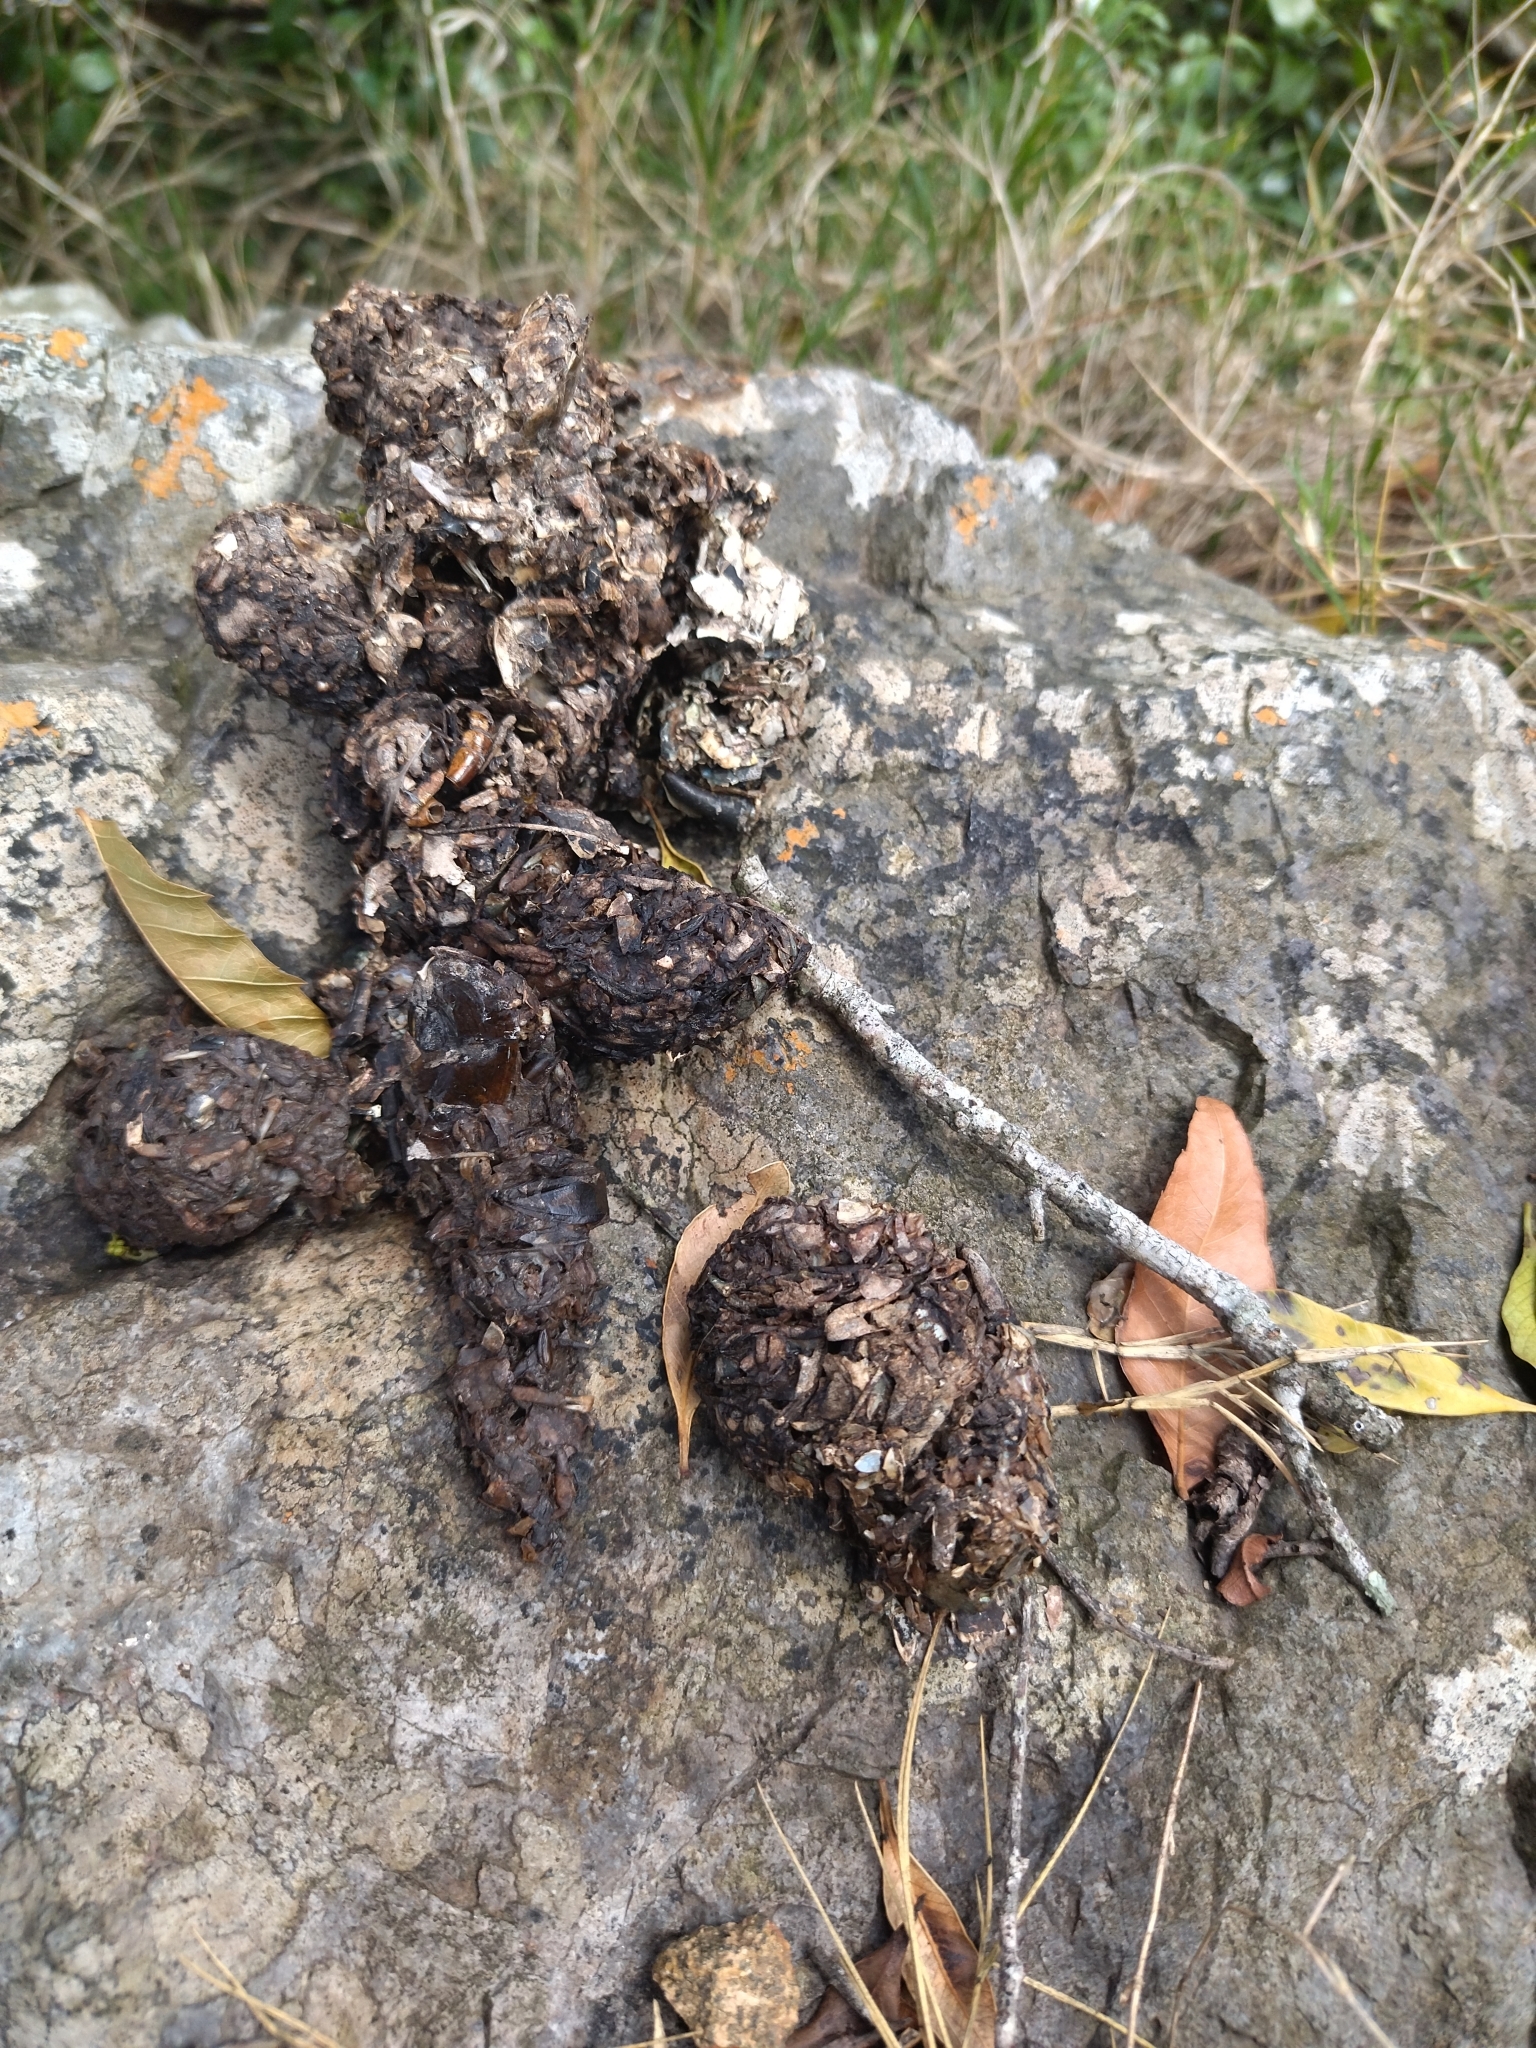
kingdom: Animalia
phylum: Chordata
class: Mammalia
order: Carnivora
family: Procyonidae
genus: Procyon
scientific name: Procyon cancrivorus
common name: Crab-eating raccoon
